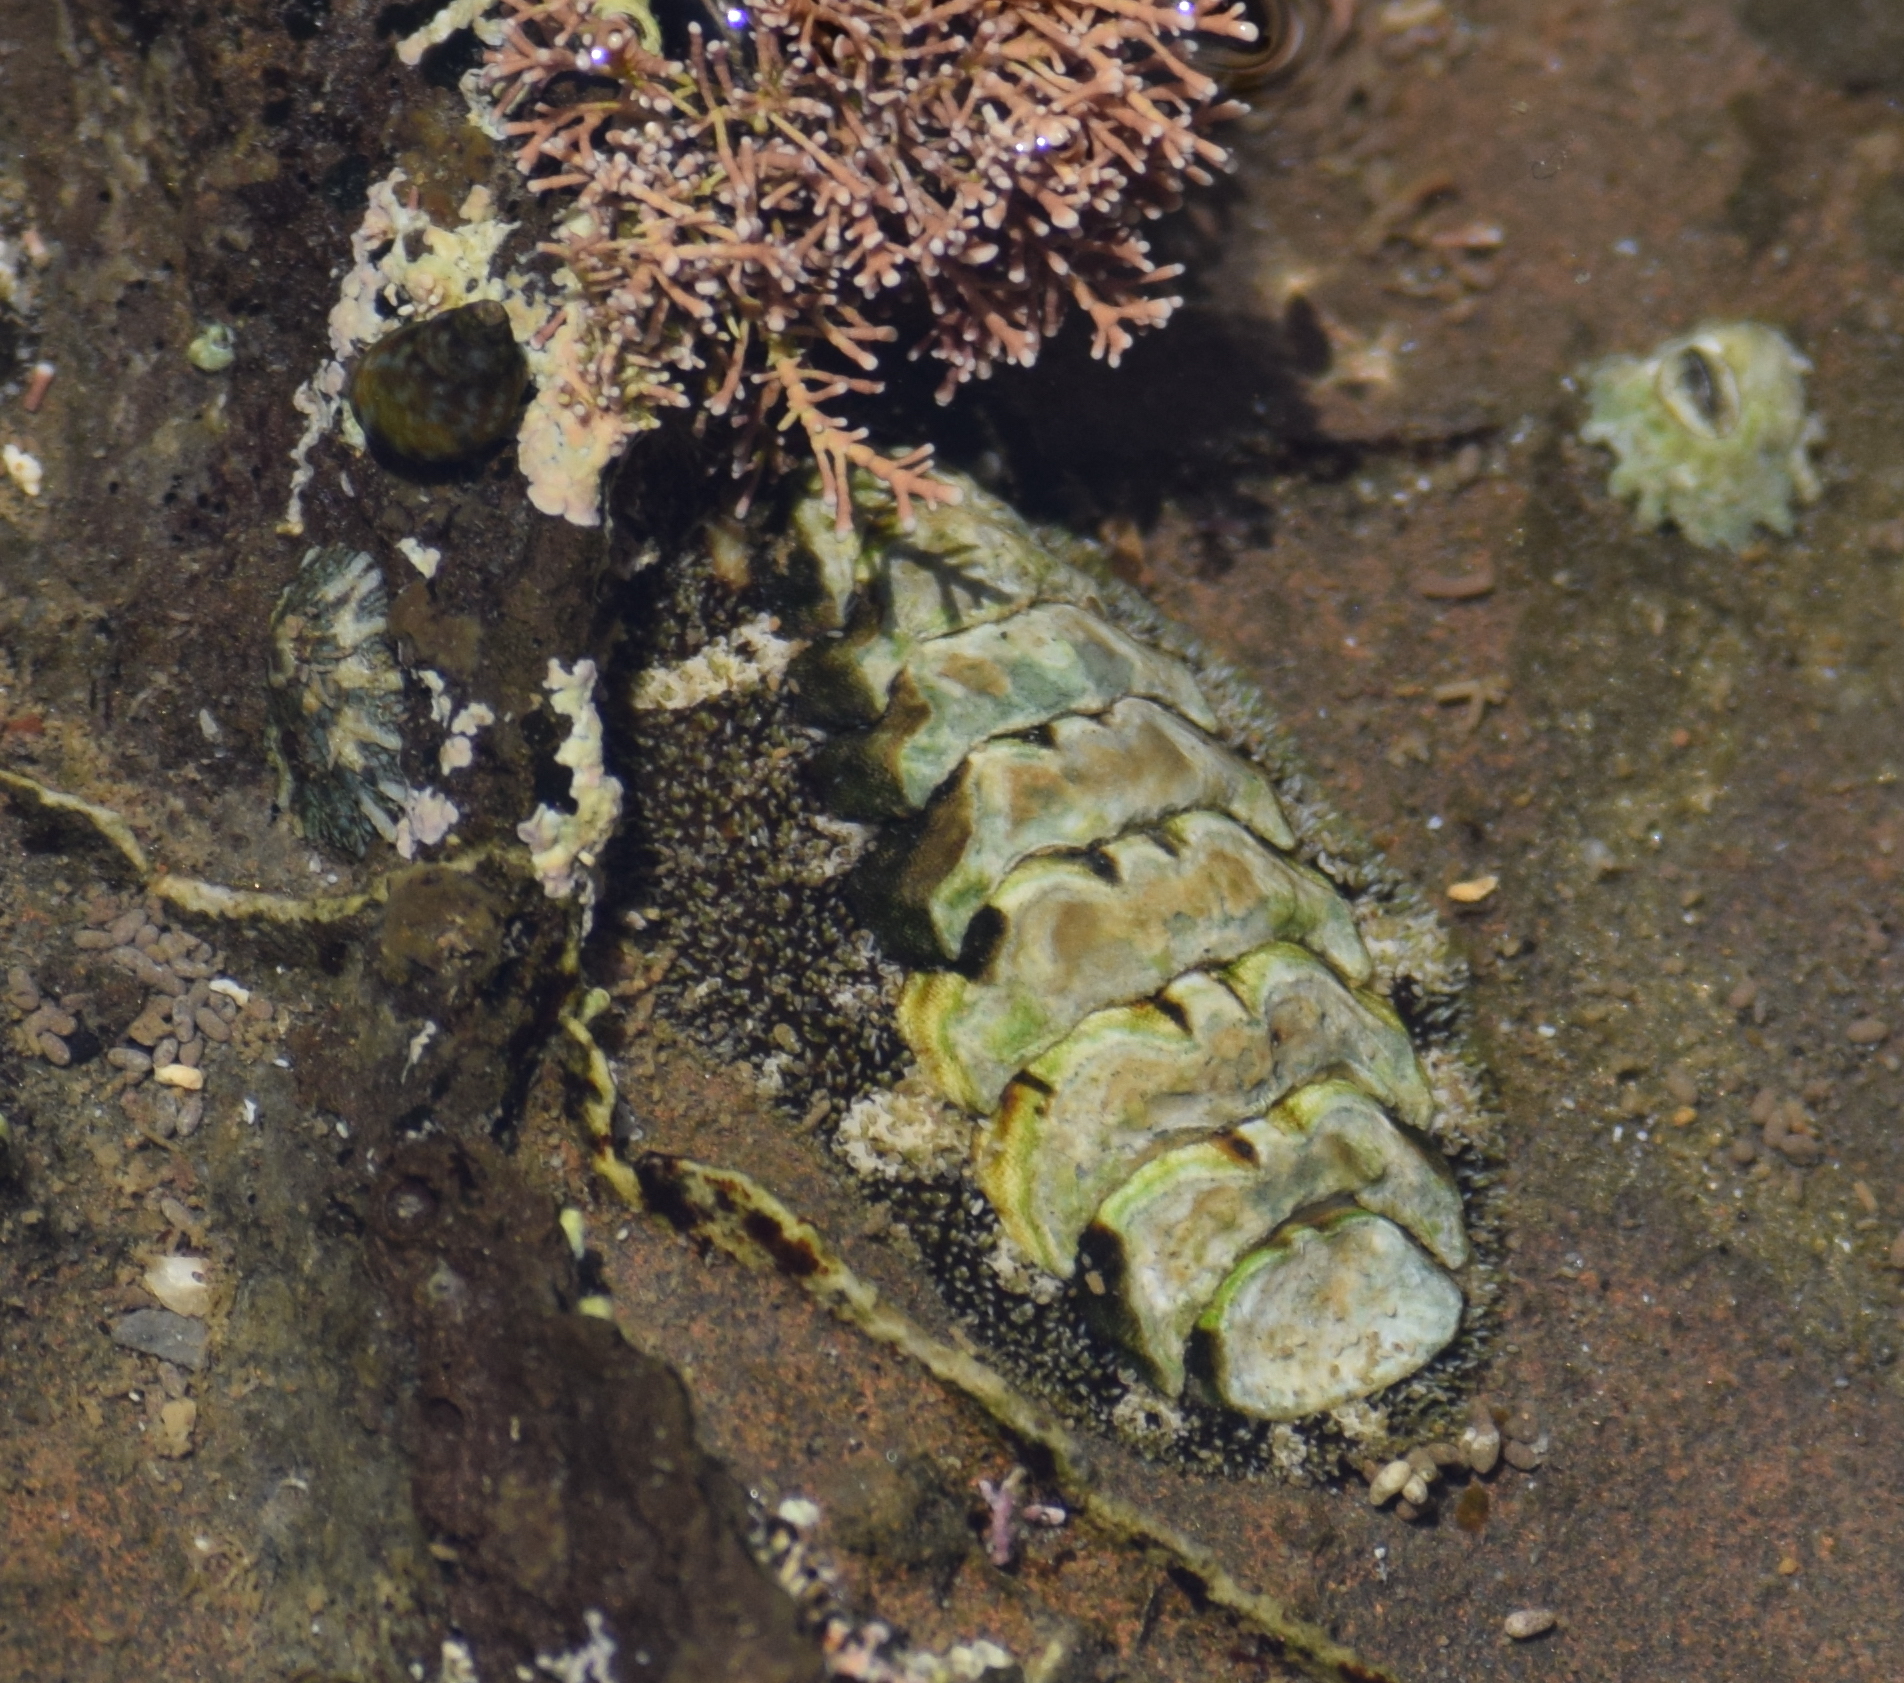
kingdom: Animalia
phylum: Mollusca
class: Polyplacophora
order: Chitonida
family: Tonicellidae
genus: Nuttallina
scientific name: Nuttallina californica
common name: California nuttall chiton
